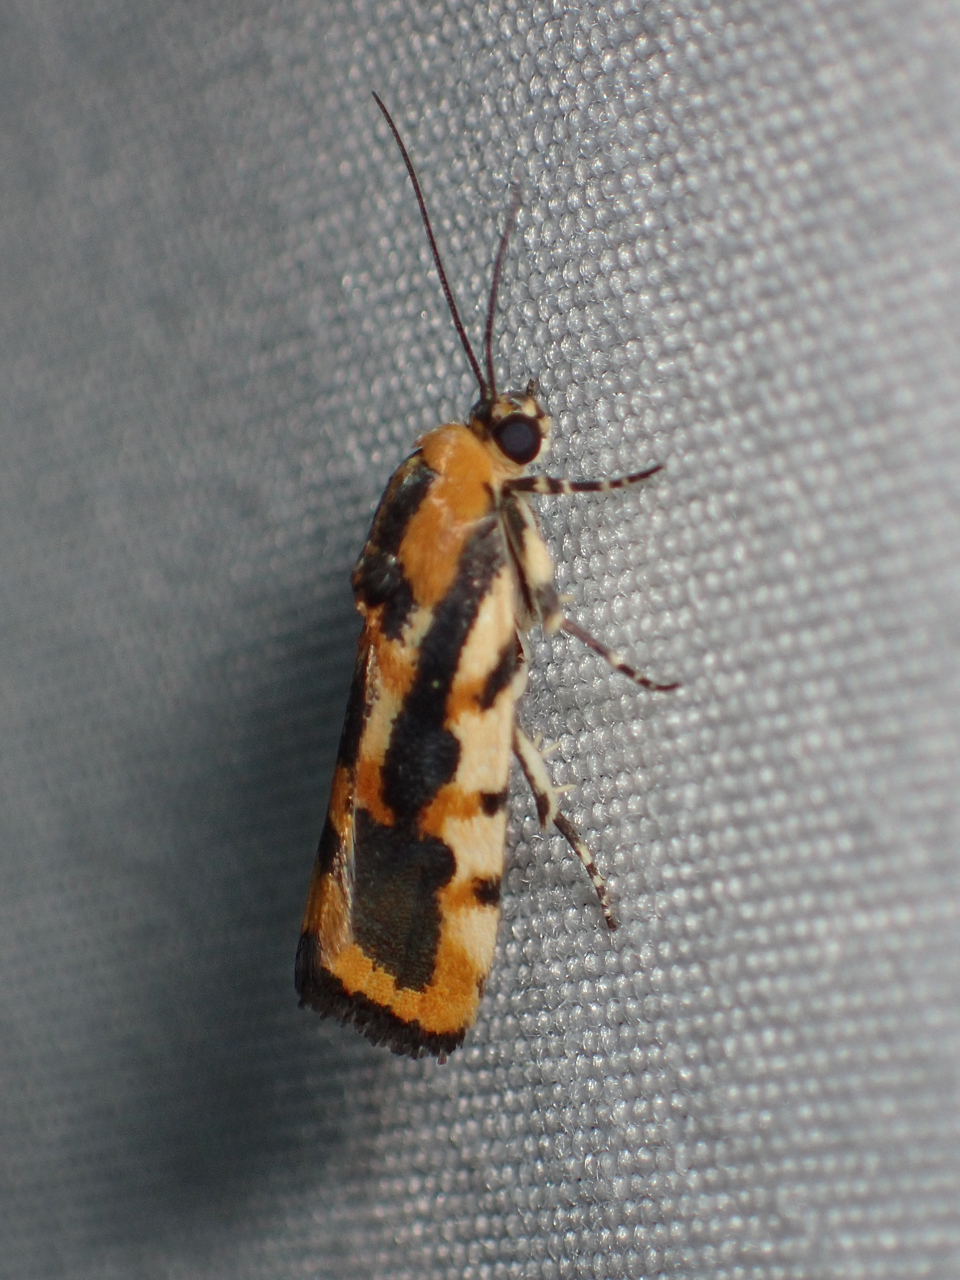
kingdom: Animalia
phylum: Arthropoda
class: Insecta
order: Lepidoptera
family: Noctuidae
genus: Acontia
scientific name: Acontia leo
